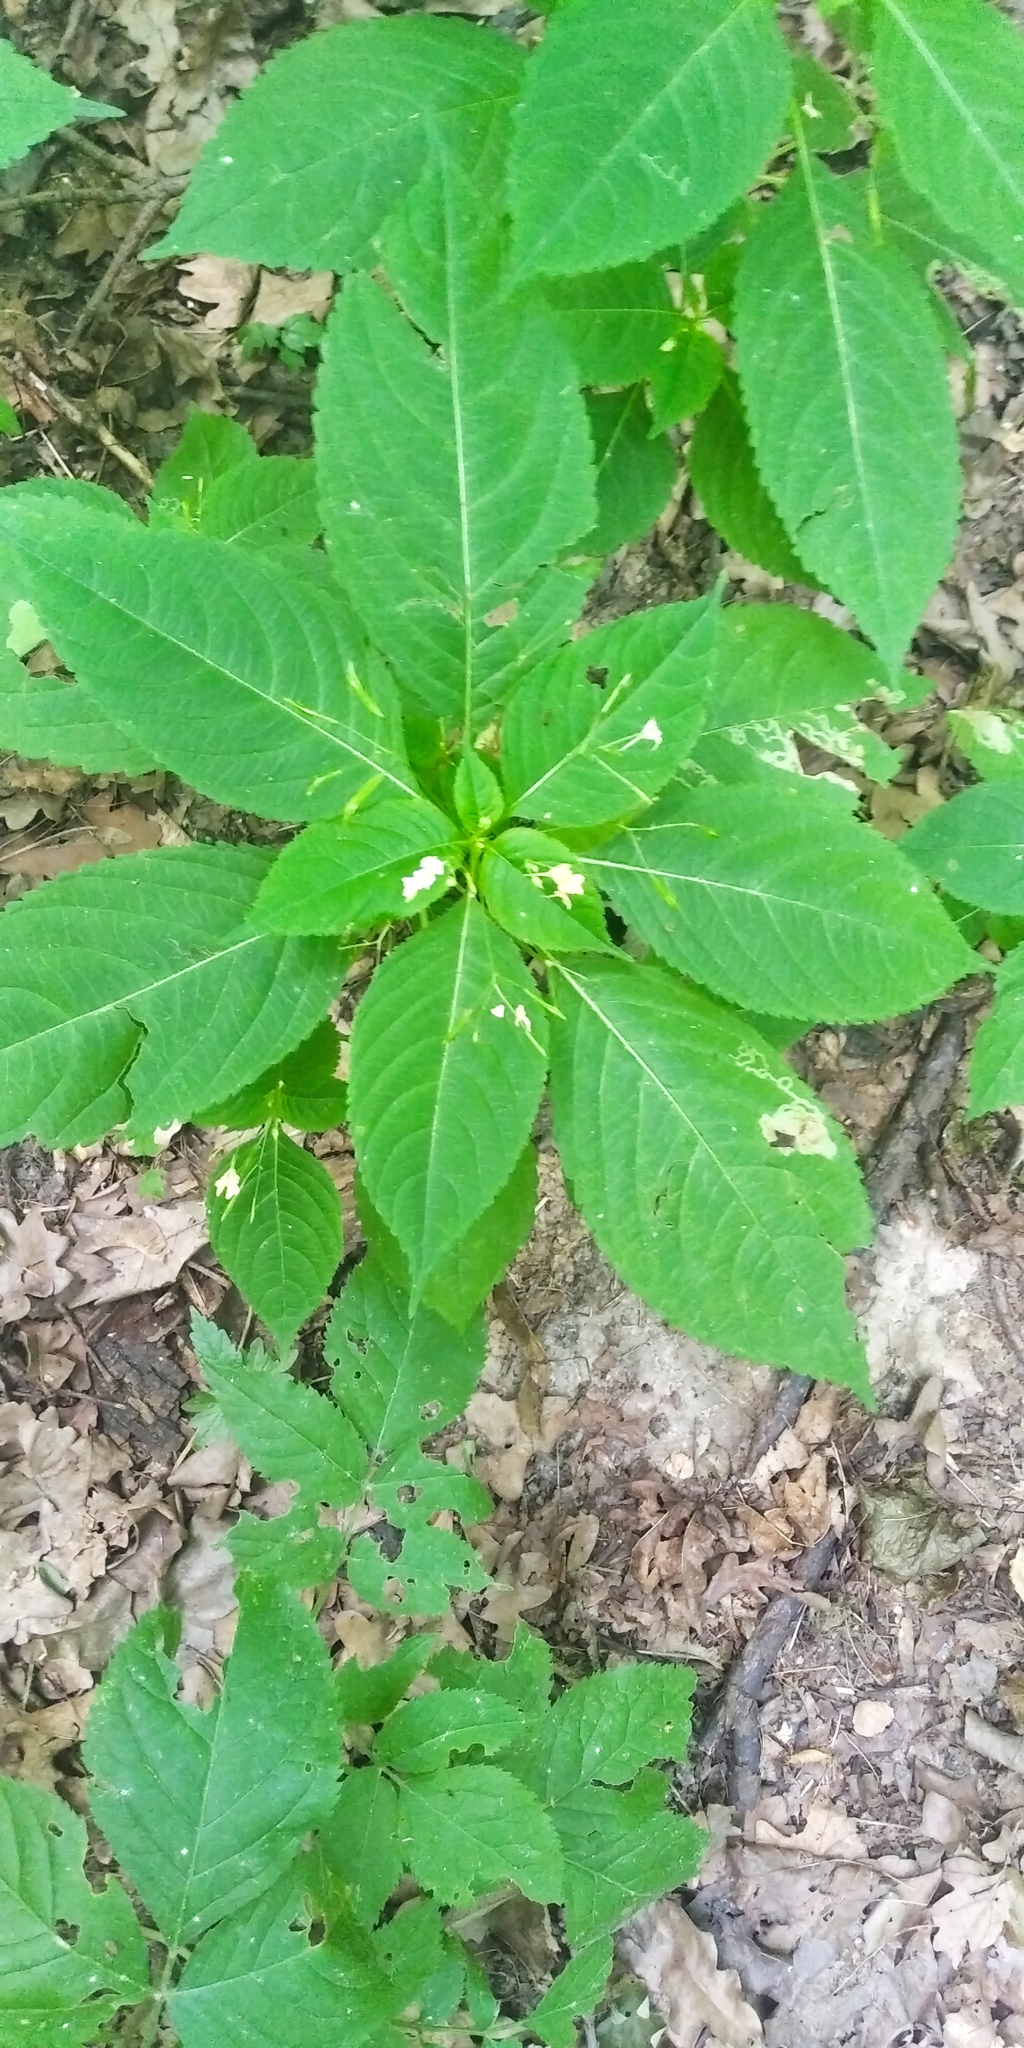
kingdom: Plantae
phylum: Tracheophyta
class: Magnoliopsida
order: Ericales
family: Balsaminaceae
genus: Impatiens
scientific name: Impatiens parviflora
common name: Small balsam
